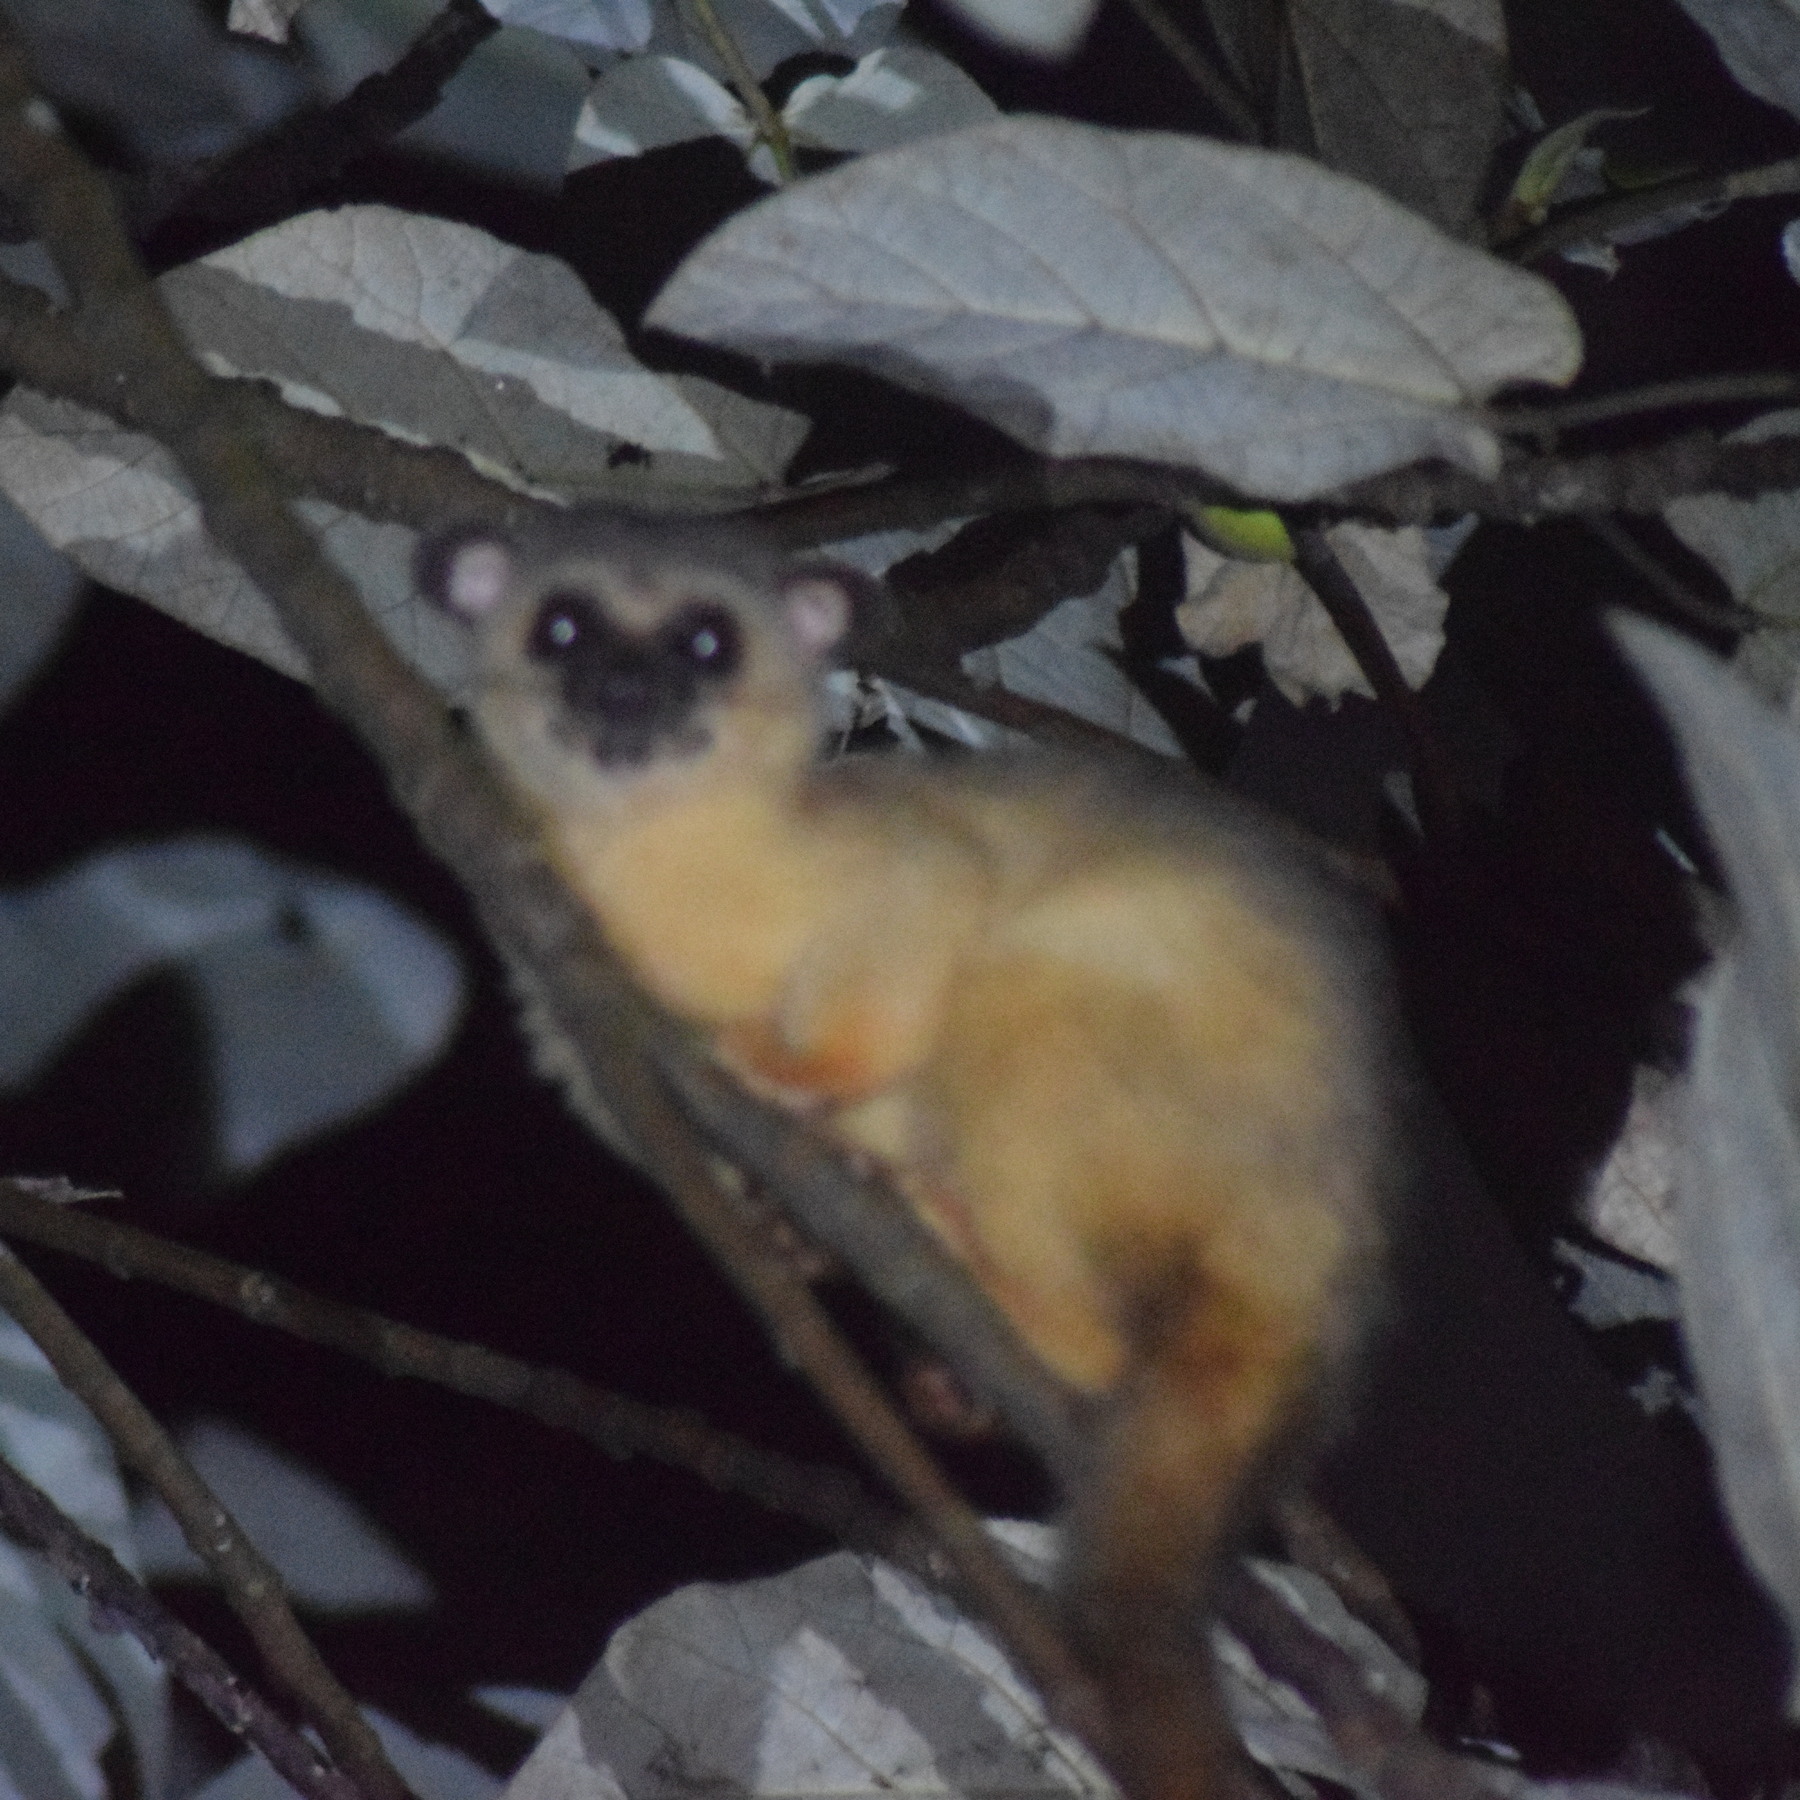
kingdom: Animalia
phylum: Chordata
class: Mammalia
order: Carnivora
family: Viverridae
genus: Arctogalidia
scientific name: Arctogalidia trivirgata
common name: Small-toothed palm civet
